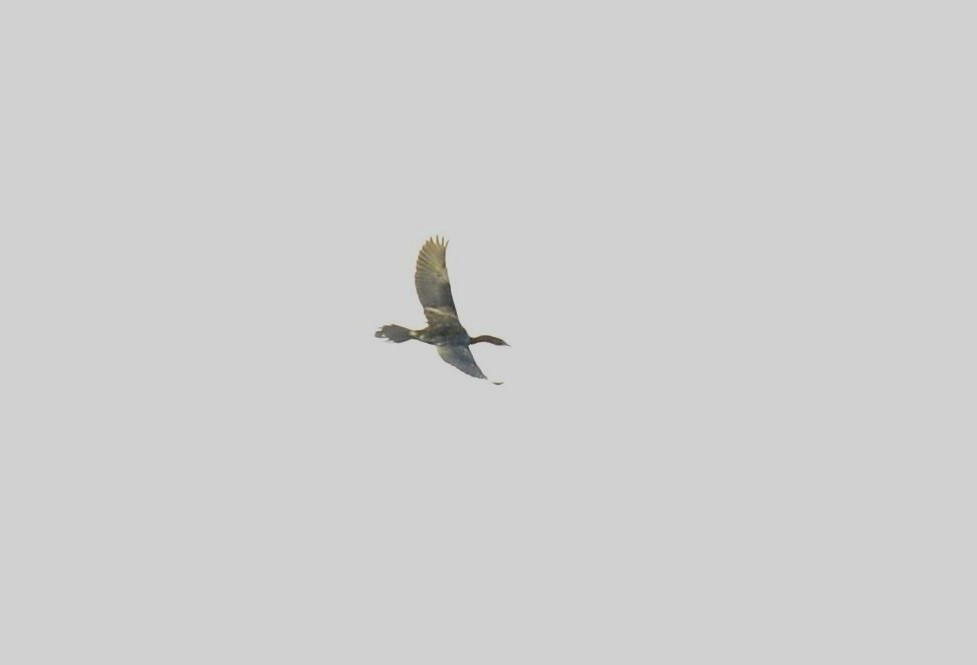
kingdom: Animalia
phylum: Chordata
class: Aves
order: Suliformes
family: Phalacrocoracidae
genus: Microcarbo
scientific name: Microcarbo niger
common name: Little cormorant
